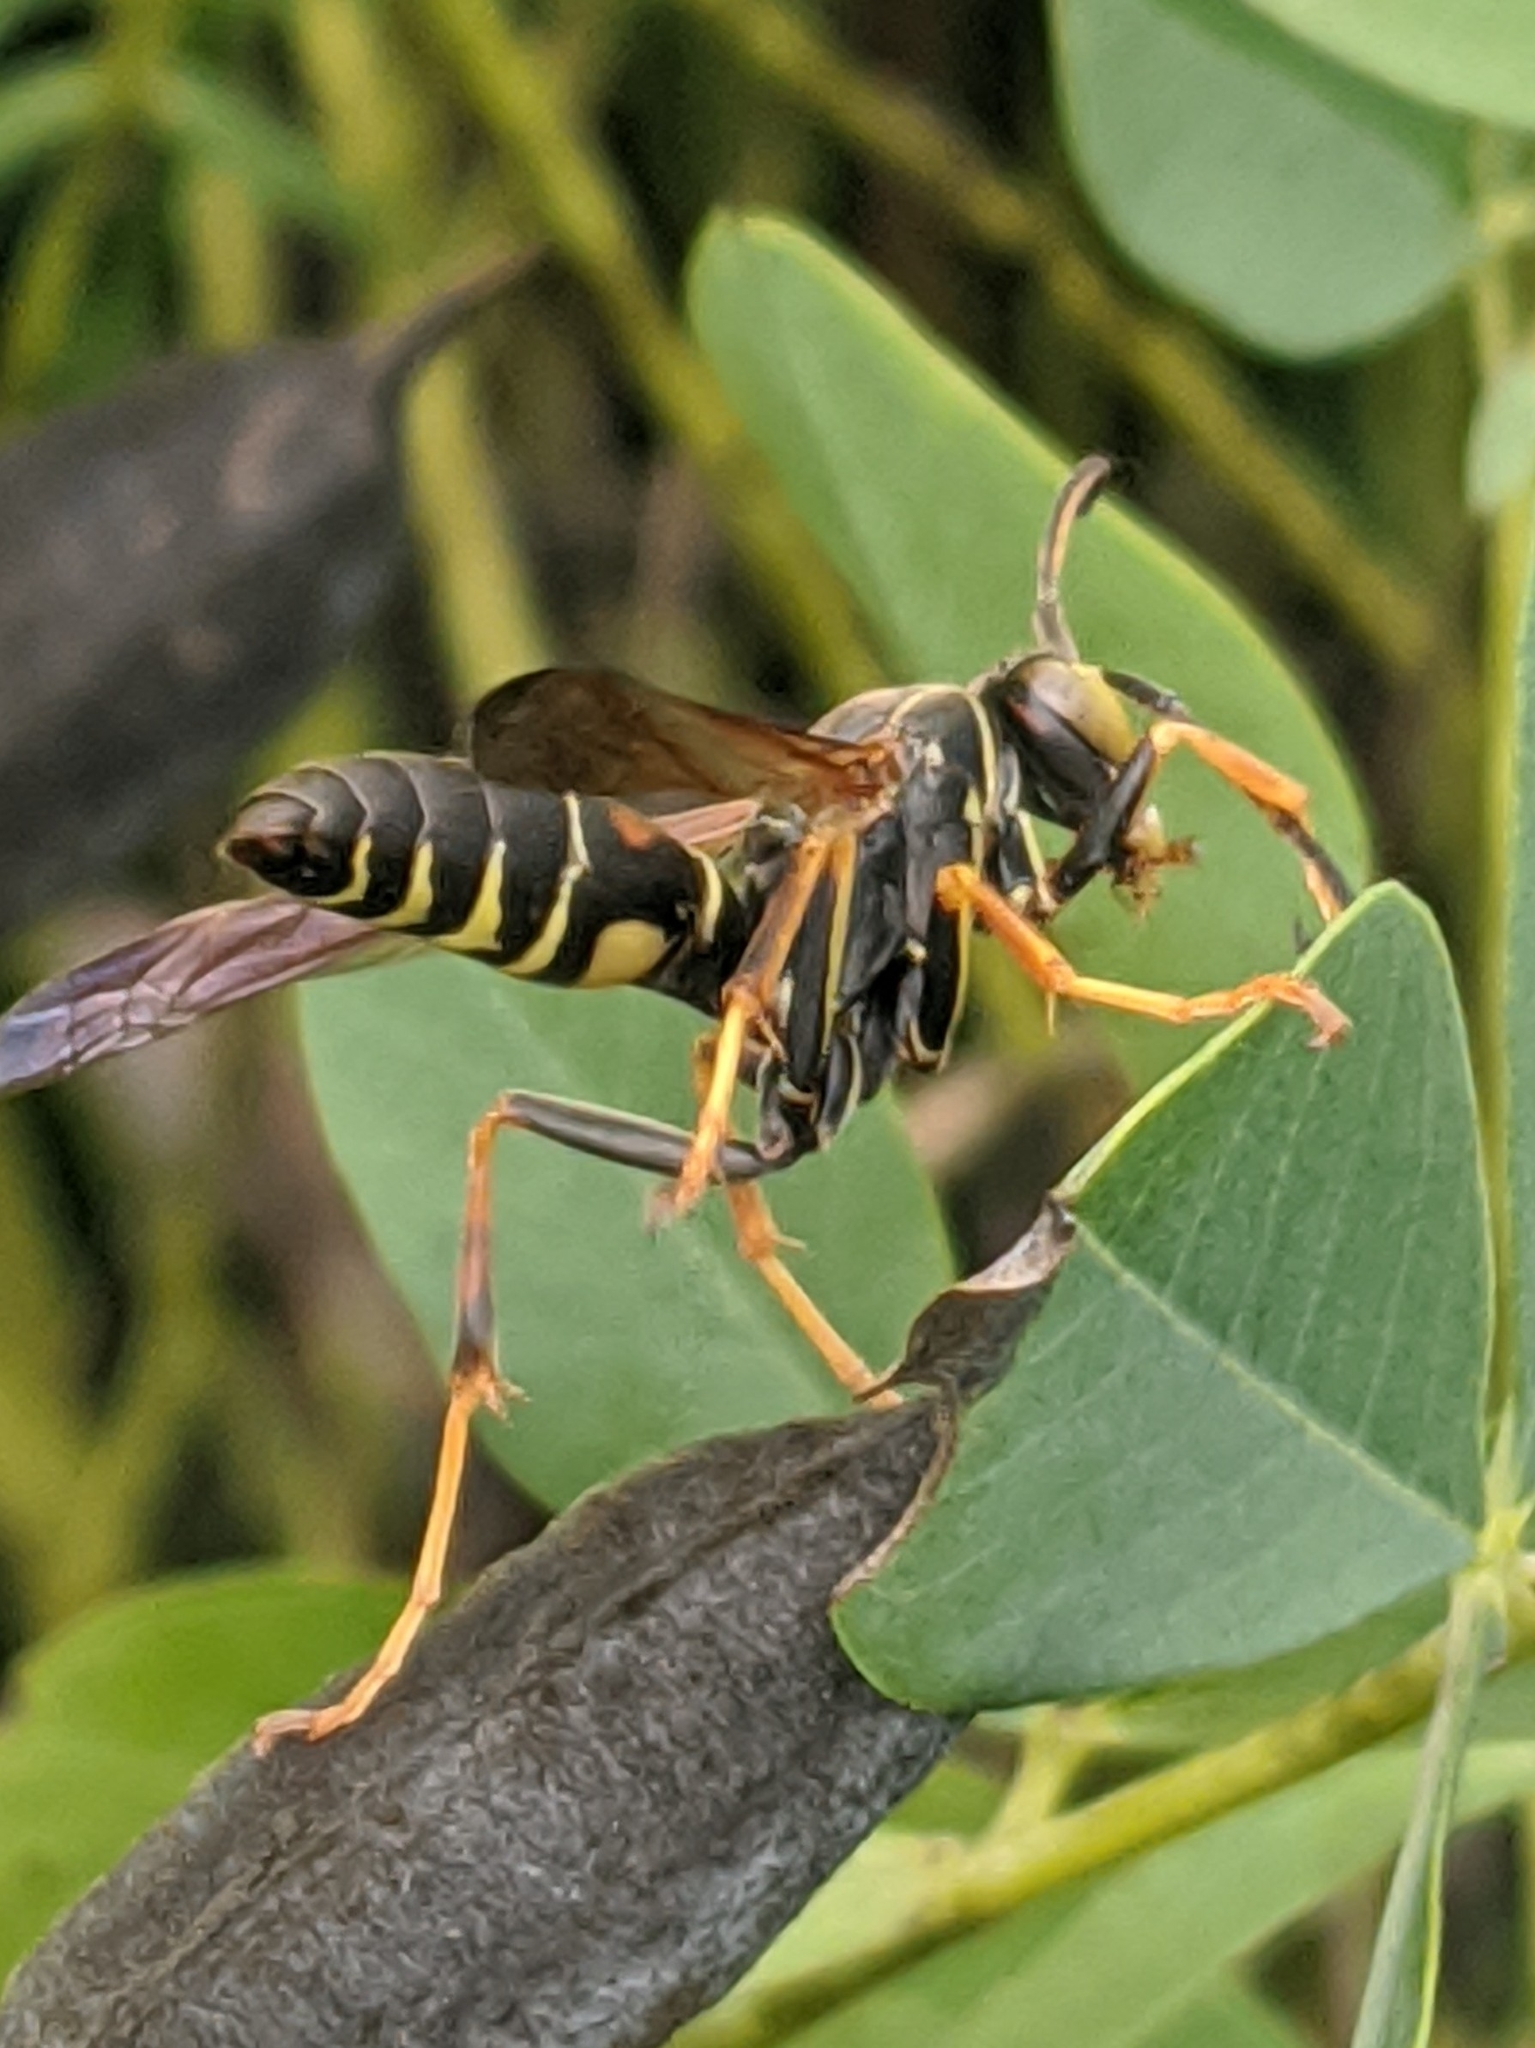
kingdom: Animalia
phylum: Arthropoda
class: Insecta
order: Hymenoptera
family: Eumenidae
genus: Polistes
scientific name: Polistes fuscatus
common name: Dark paper wasp
